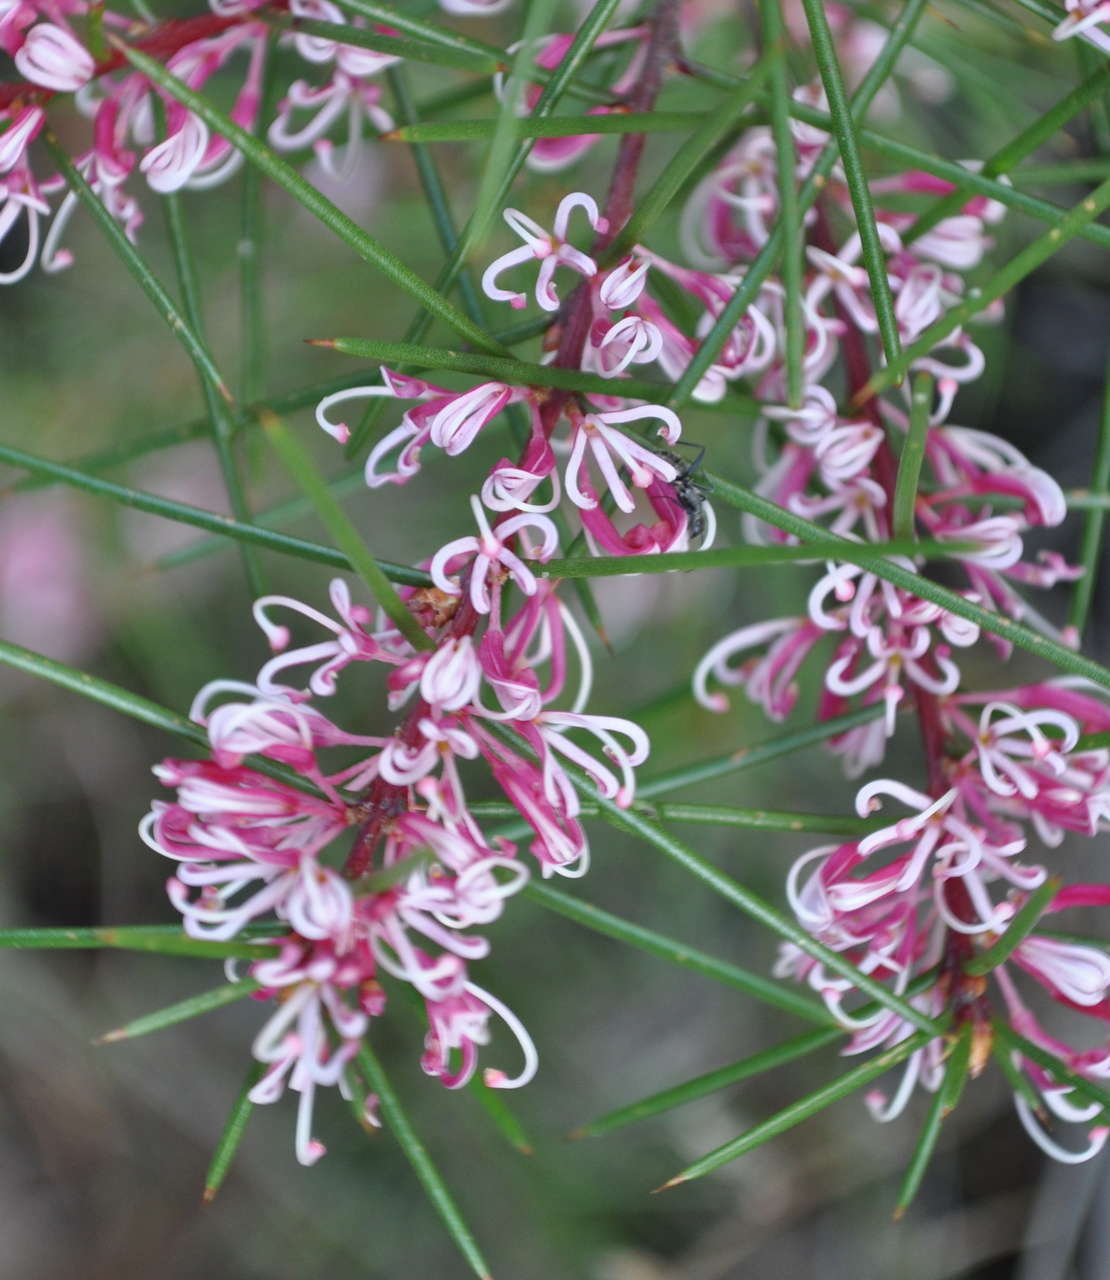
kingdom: Plantae
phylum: Tracheophyta
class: Magnoliopsida
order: Proteales
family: Proteaceae
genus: Hakea
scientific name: Hakea decurrens
